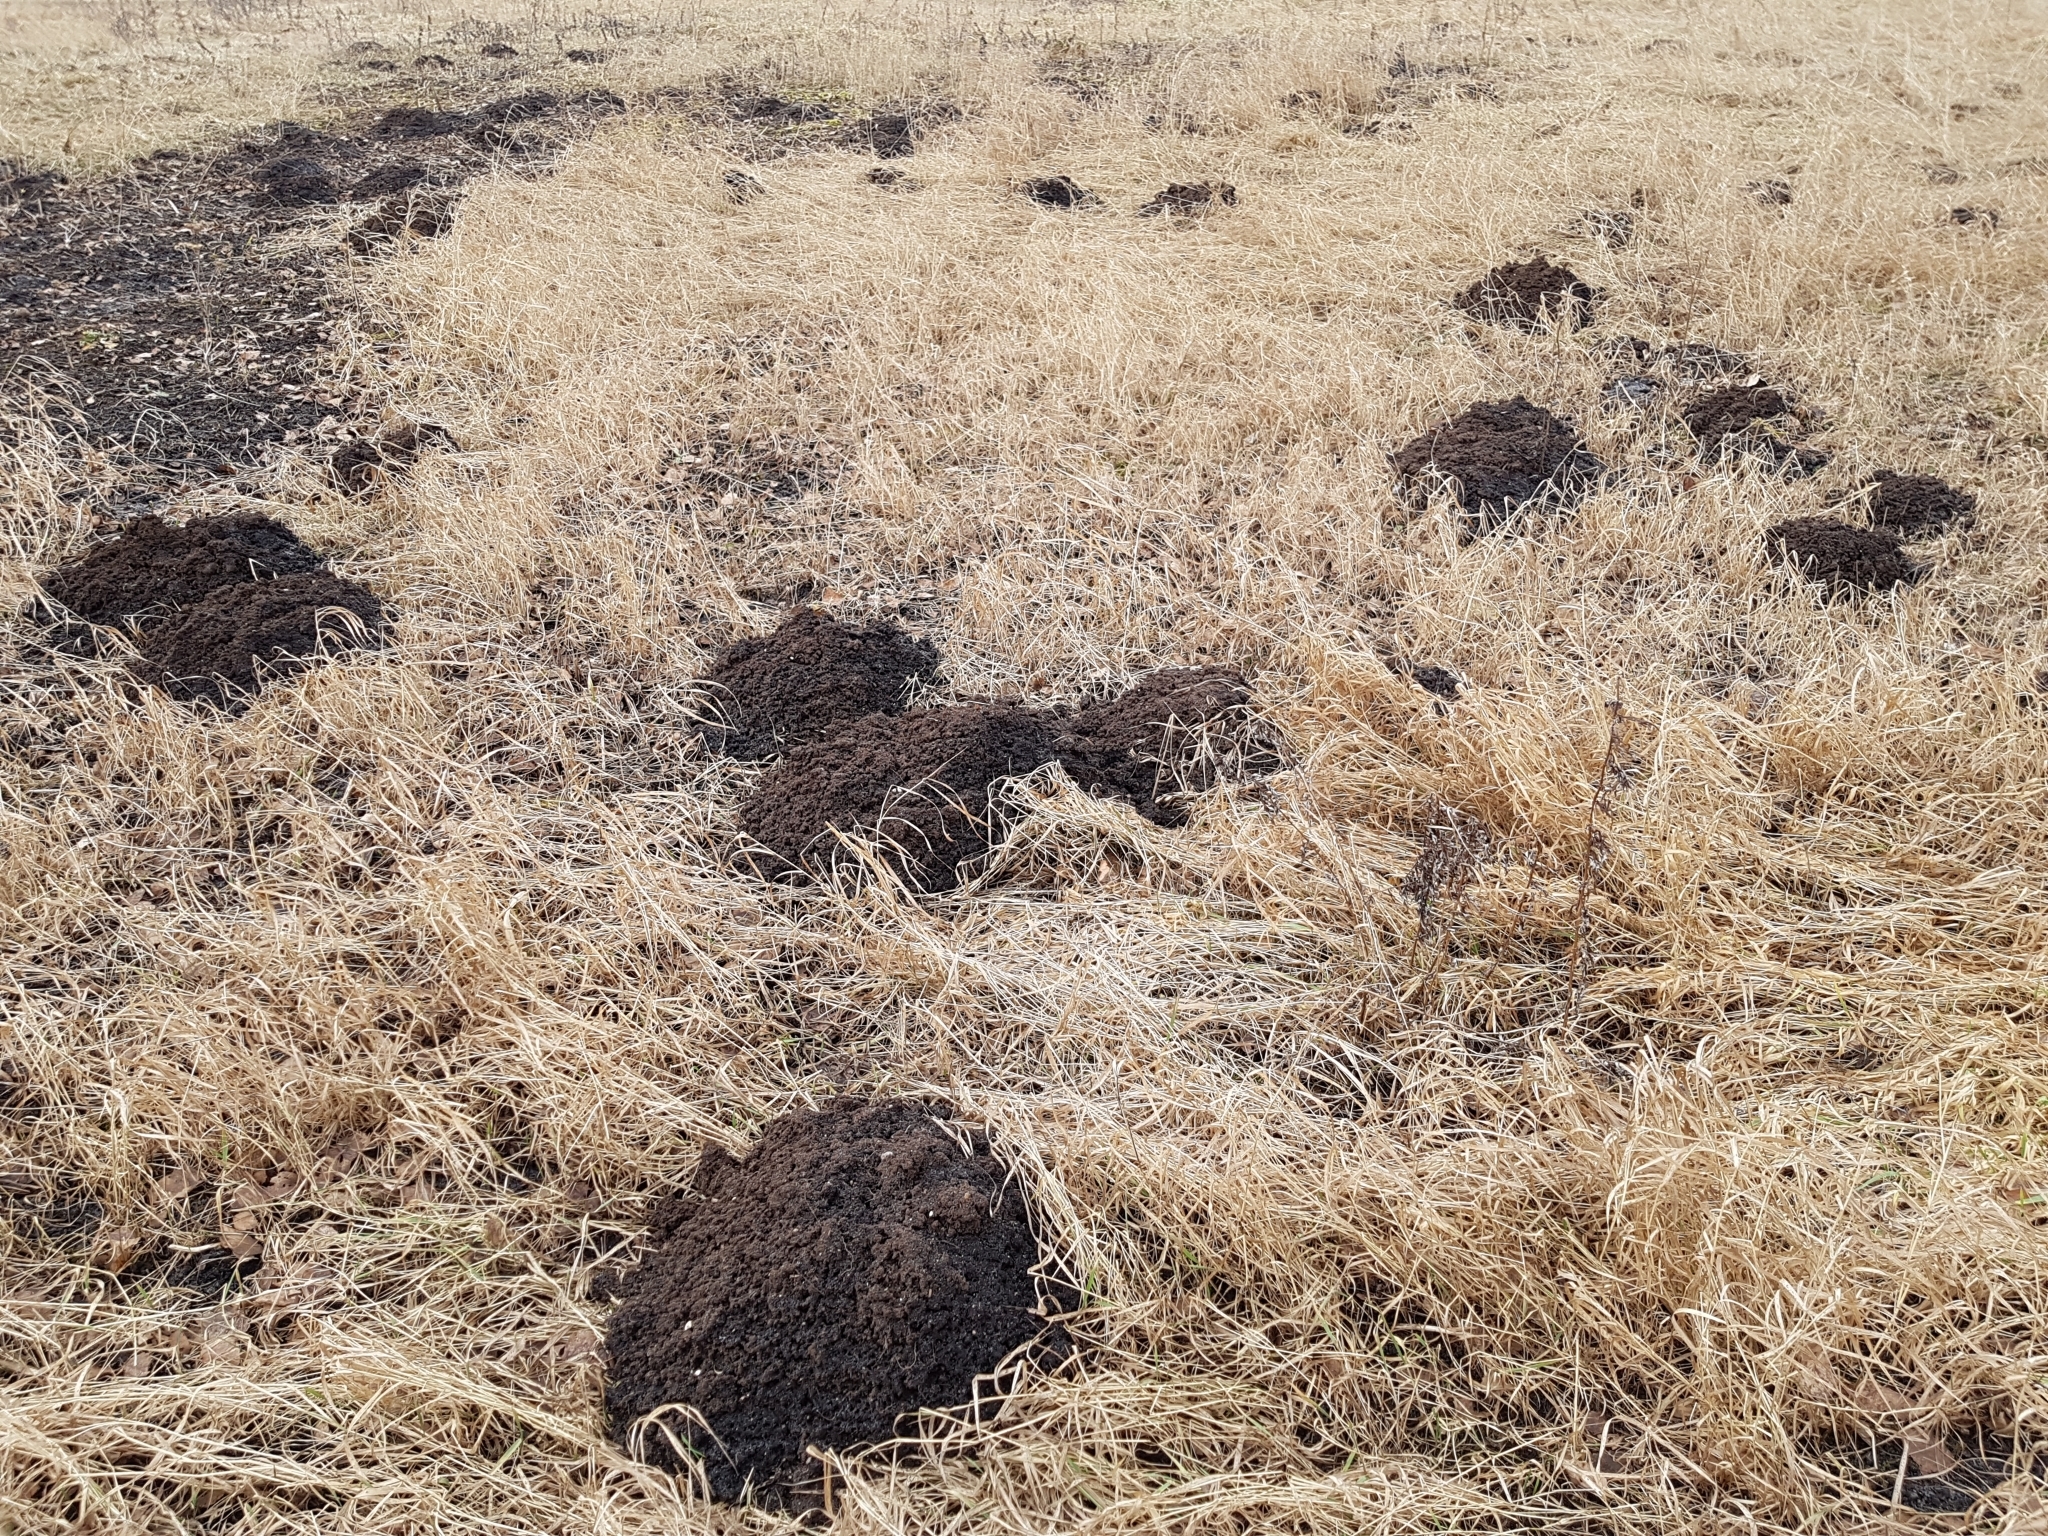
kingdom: Animalia
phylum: Chordata
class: Mammalia
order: Soricomorpha
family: Talpidae
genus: Talpa
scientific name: Talpa europaea
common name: European mole
